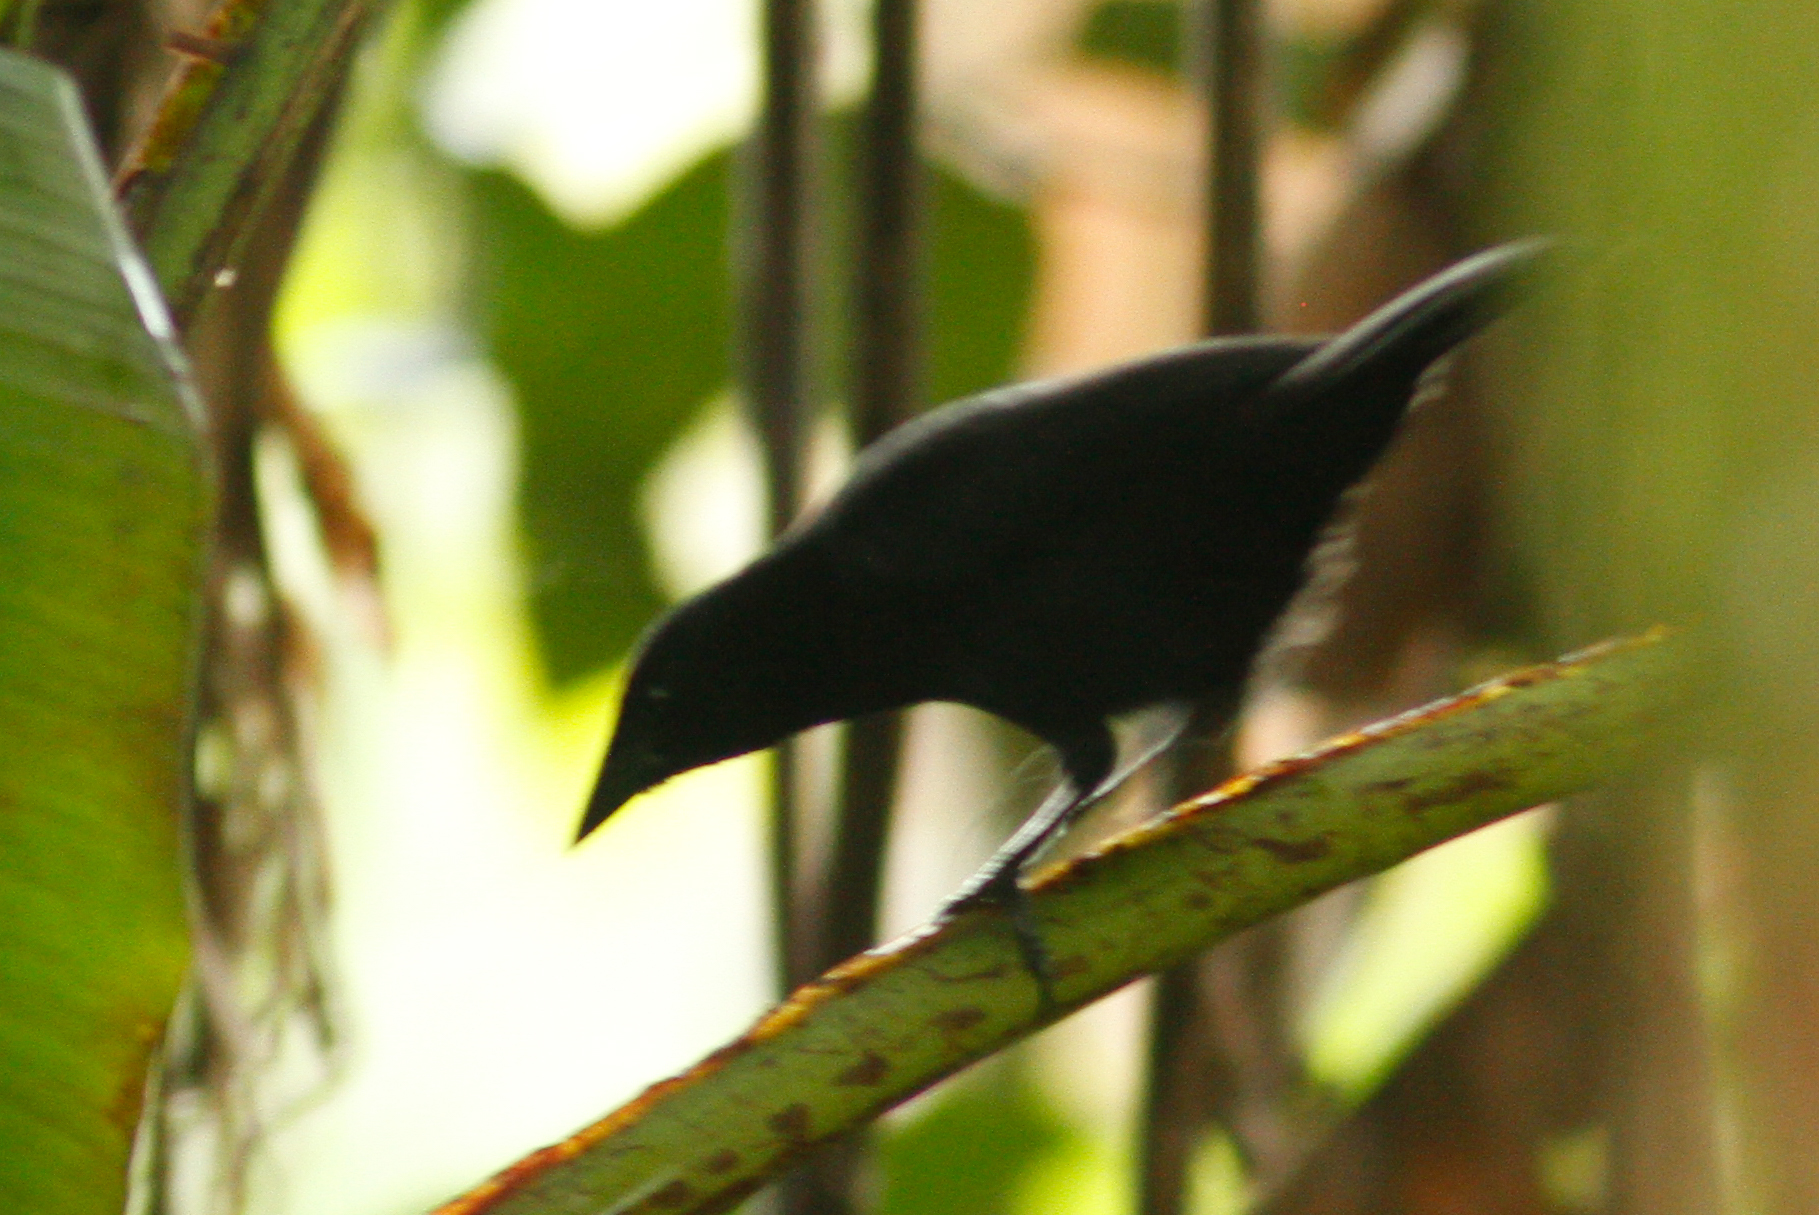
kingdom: Animalia
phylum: Chordata
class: Aves
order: Passeriformes
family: Icteridae
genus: Dives
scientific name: Dives warczewiczi
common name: Scrub blackbird
